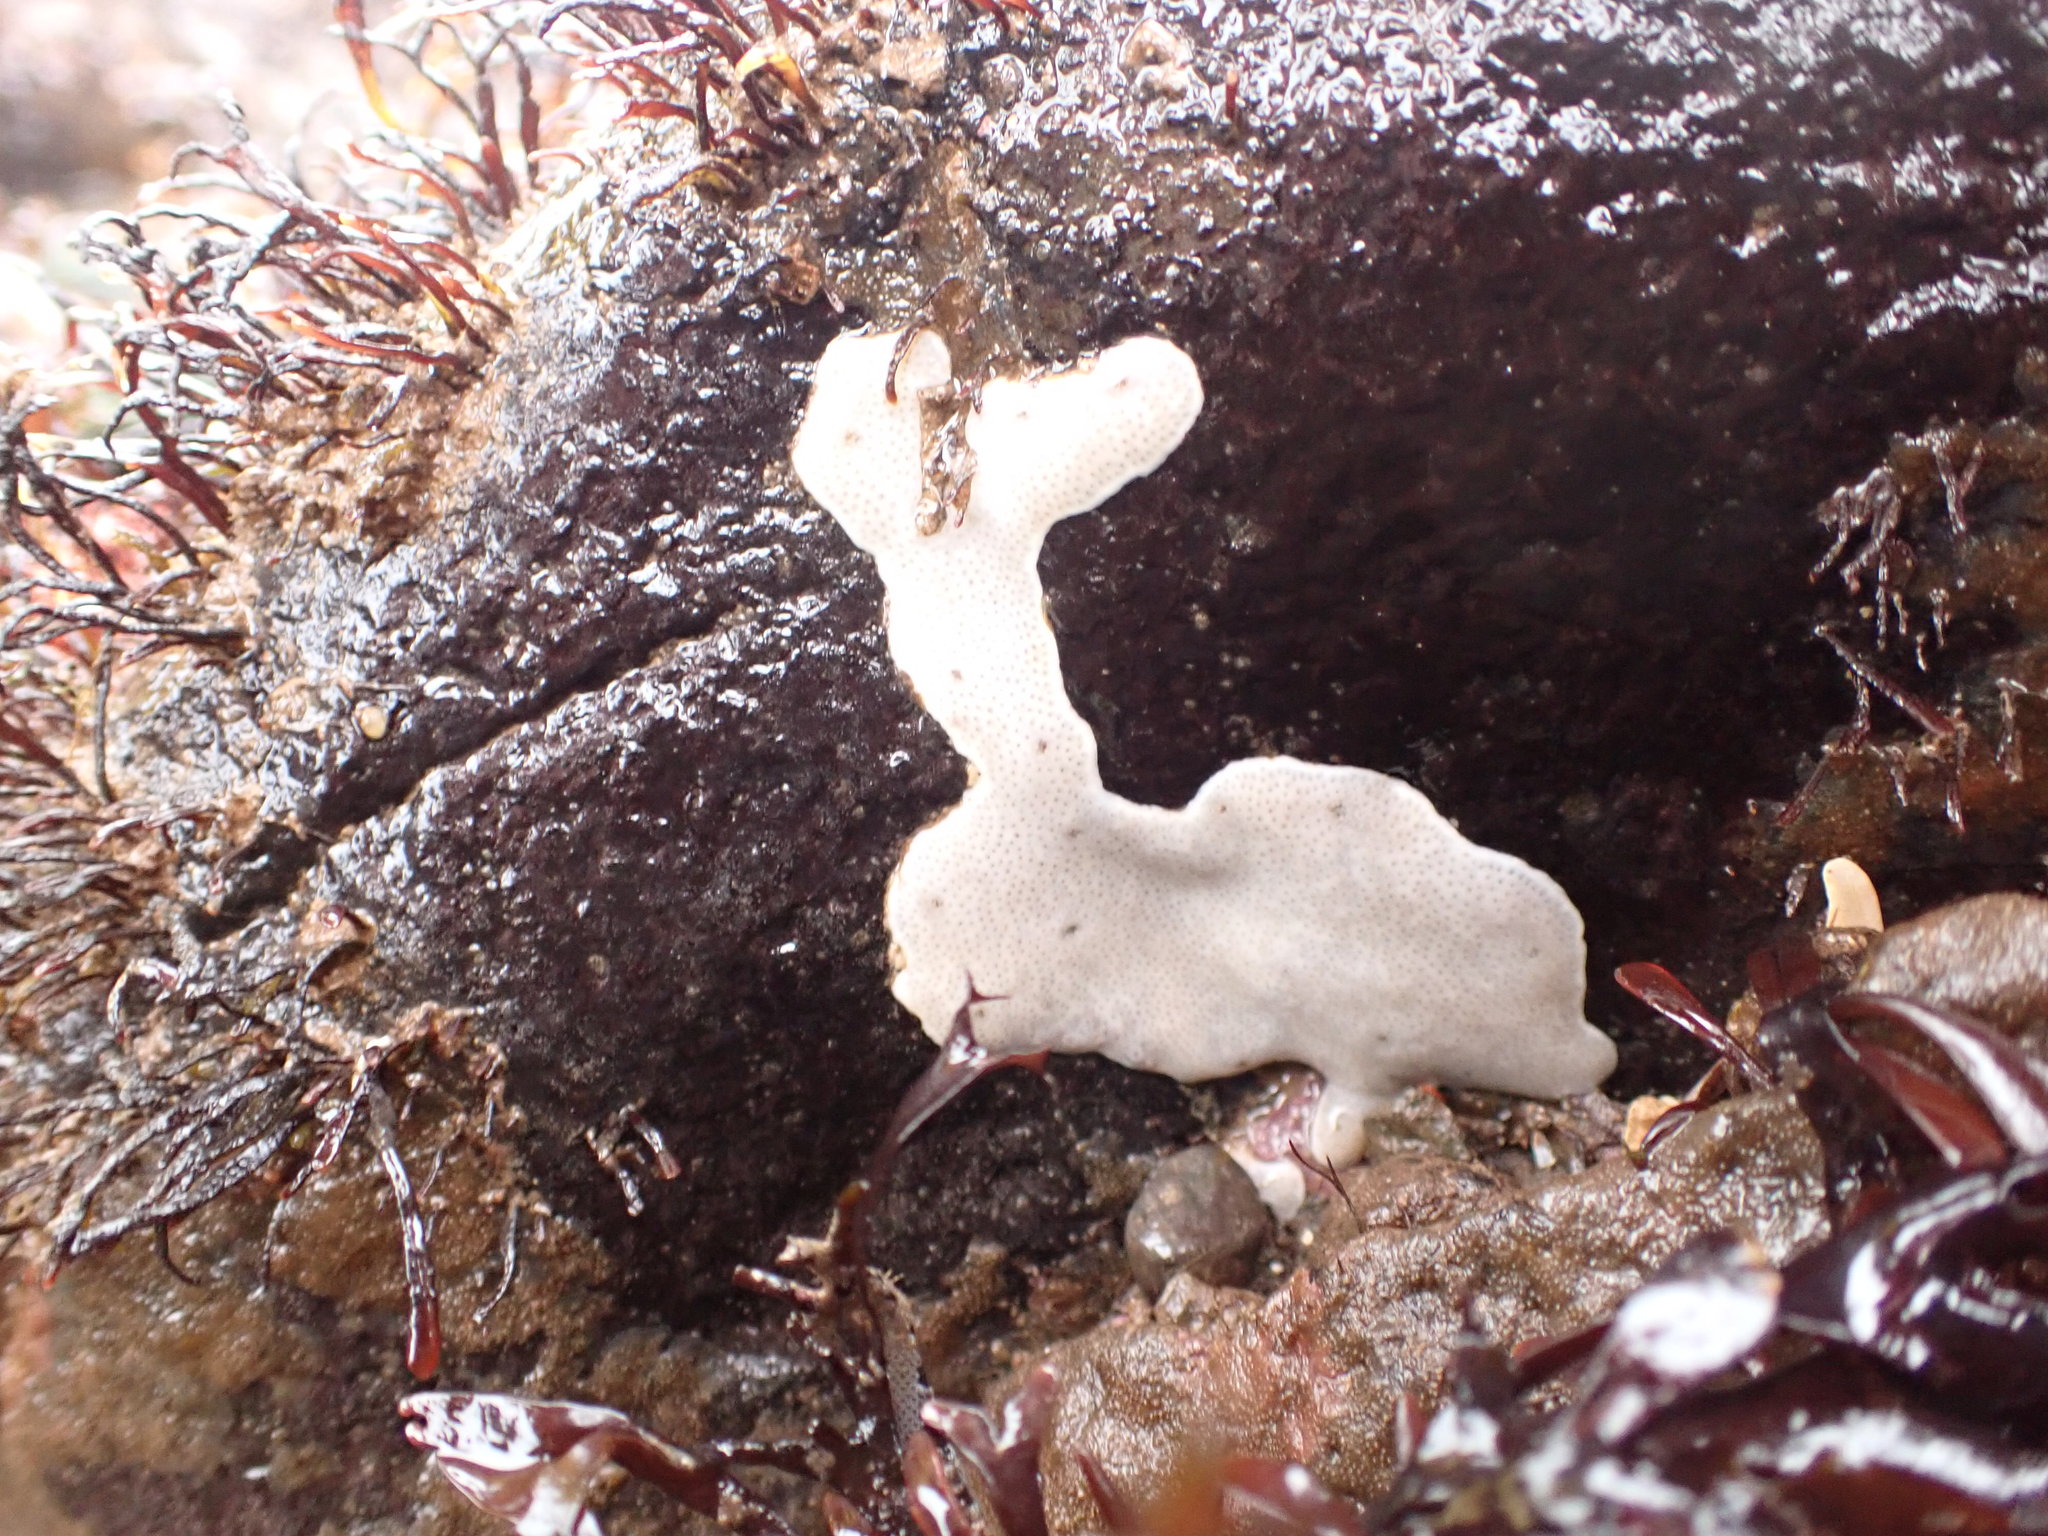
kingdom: Animalia
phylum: Chordata
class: Ascidiacea
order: Aplousobranchia
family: Didemnidae
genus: Didemnum
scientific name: Didemnum albidum
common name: Northern white crust
